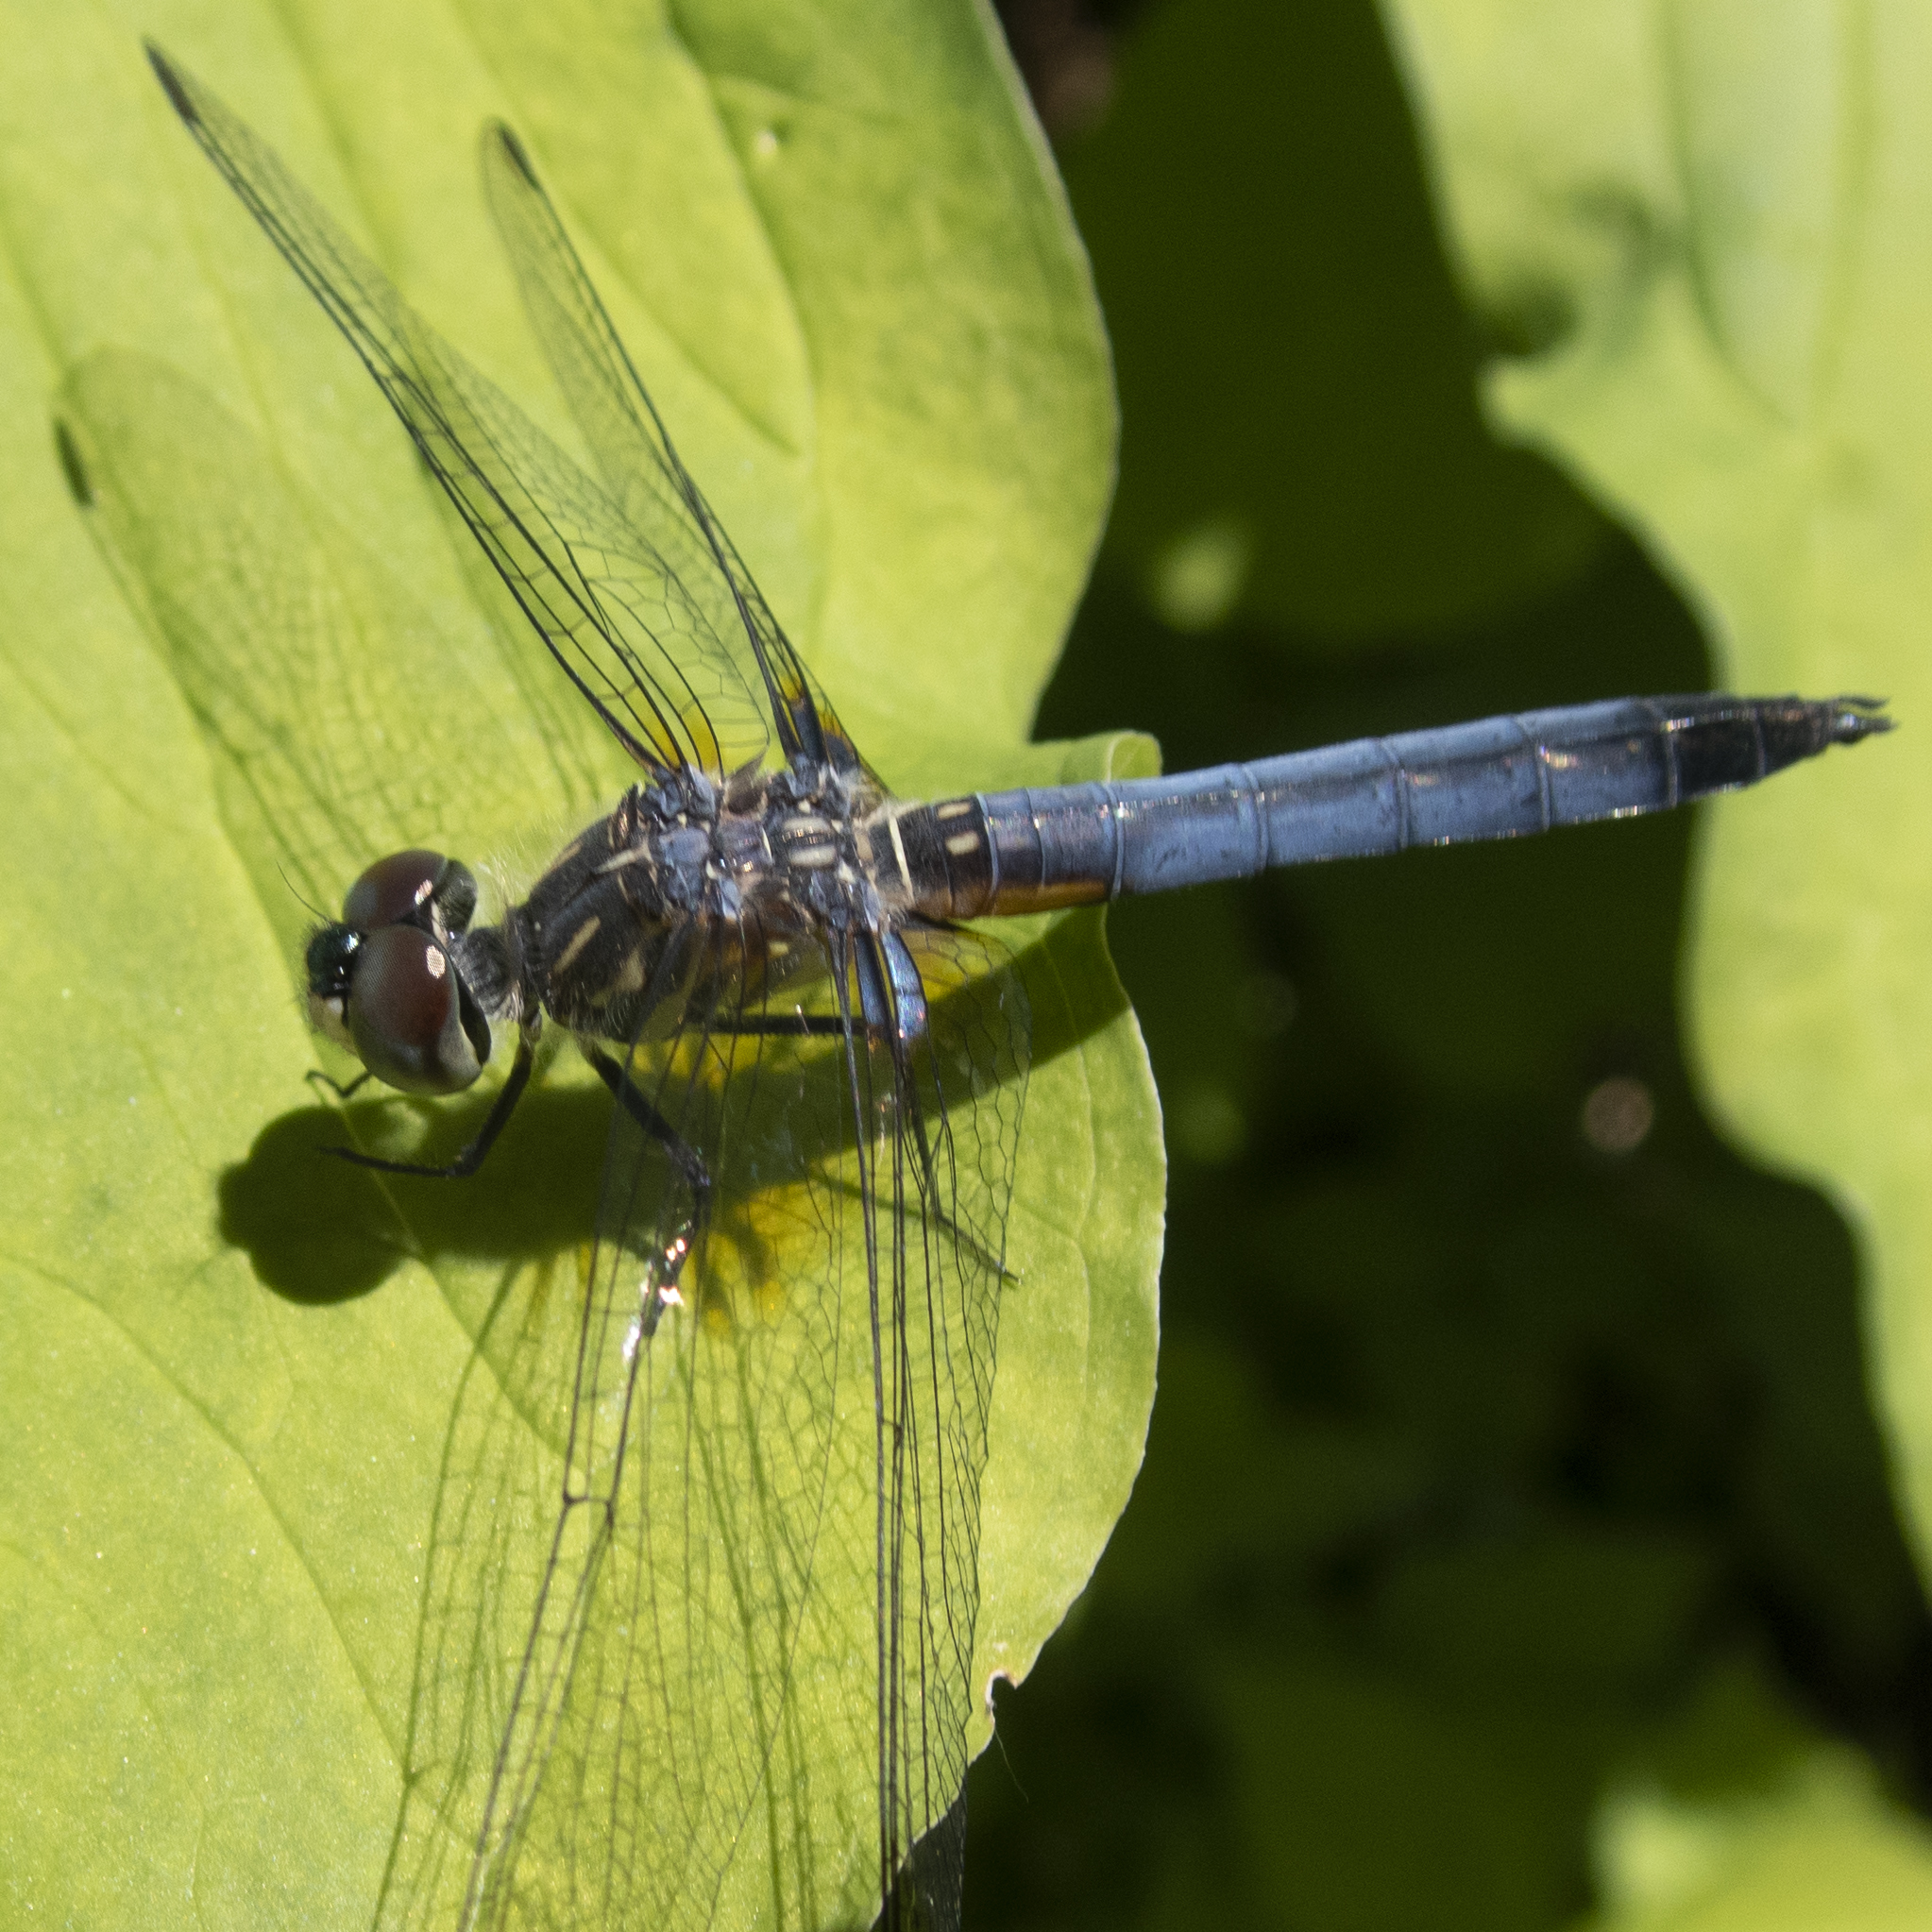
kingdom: Animalia
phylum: Arthropoda
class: Insecta
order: Odonata
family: Libellulidae
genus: Pachydiplax
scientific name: Pachydiplax longipennis
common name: Blue dasher
